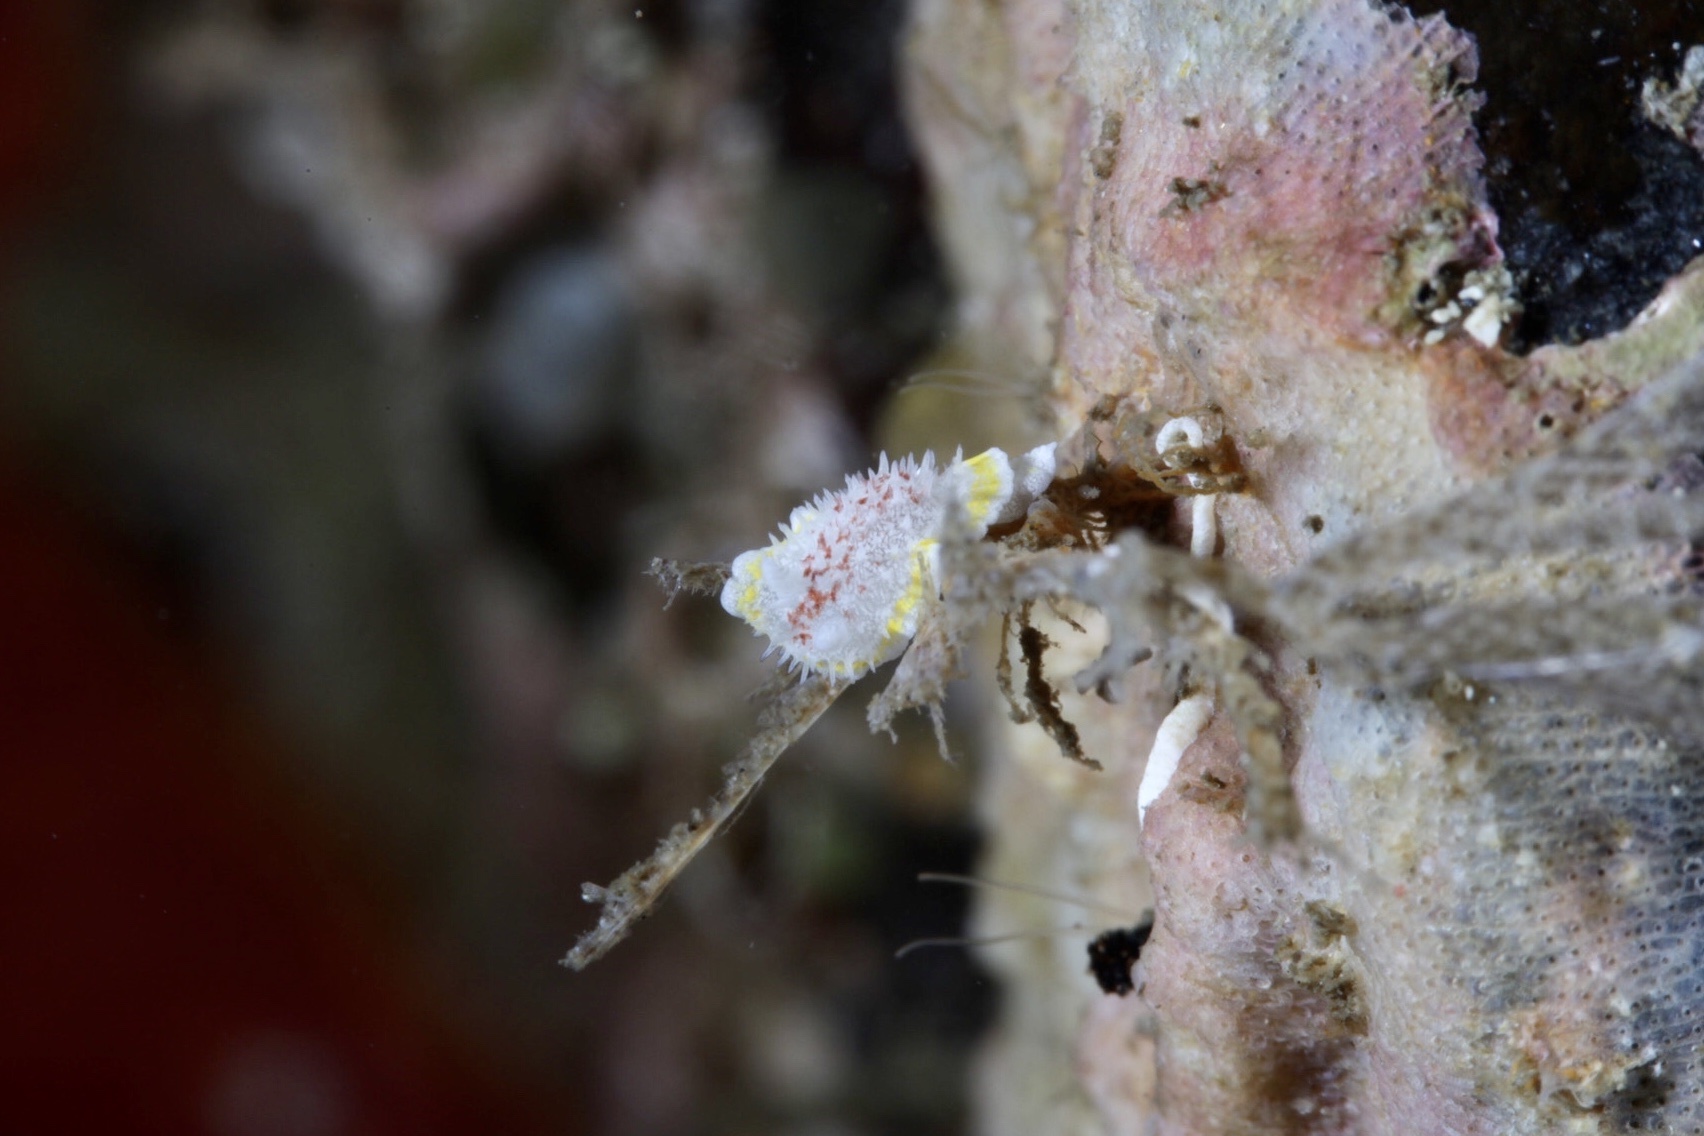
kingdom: Animalia
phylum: Mollusca
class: Gastropoda
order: Nudibranchia
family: Calycidorididae
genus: Diaphorodoris
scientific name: Diaphorodoris luteocincta
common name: Fried egg nudibranch
